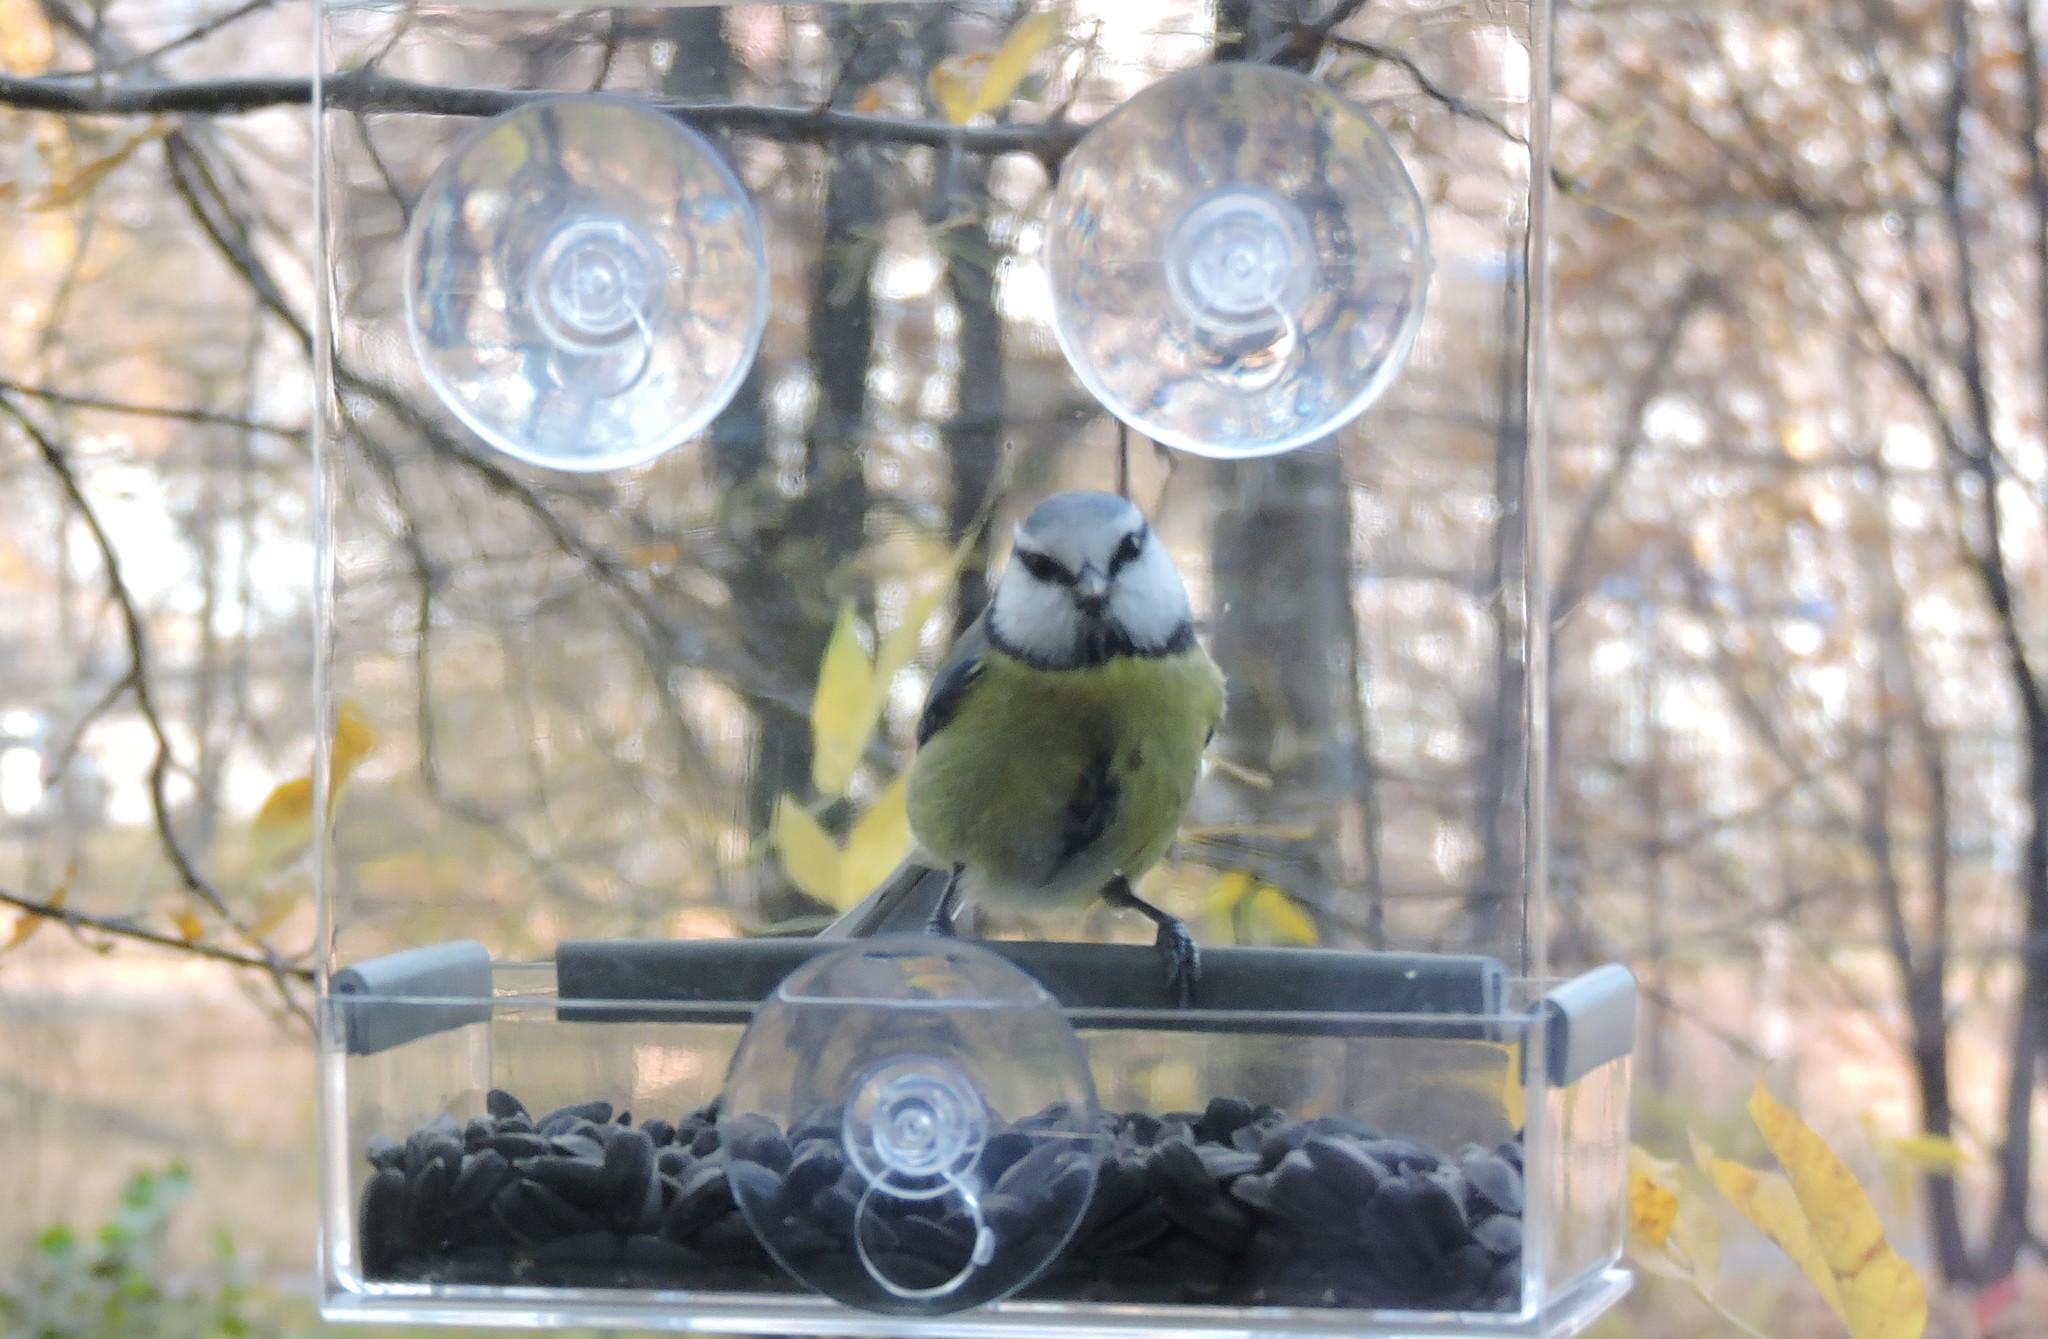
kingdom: Animalia
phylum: Chordata
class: Aves
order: Passeriformes
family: Paridae
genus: Cyanistes
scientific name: Cyanistes caeruleus
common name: Eurasian blue tit
